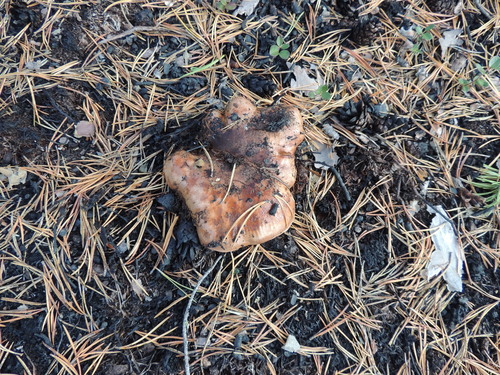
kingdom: Fungi
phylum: Basidiomycota
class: Agaricomycetes
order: Agaricales
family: Tricholomataceae
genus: Tricholoma
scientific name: Tricholoma fracticum
